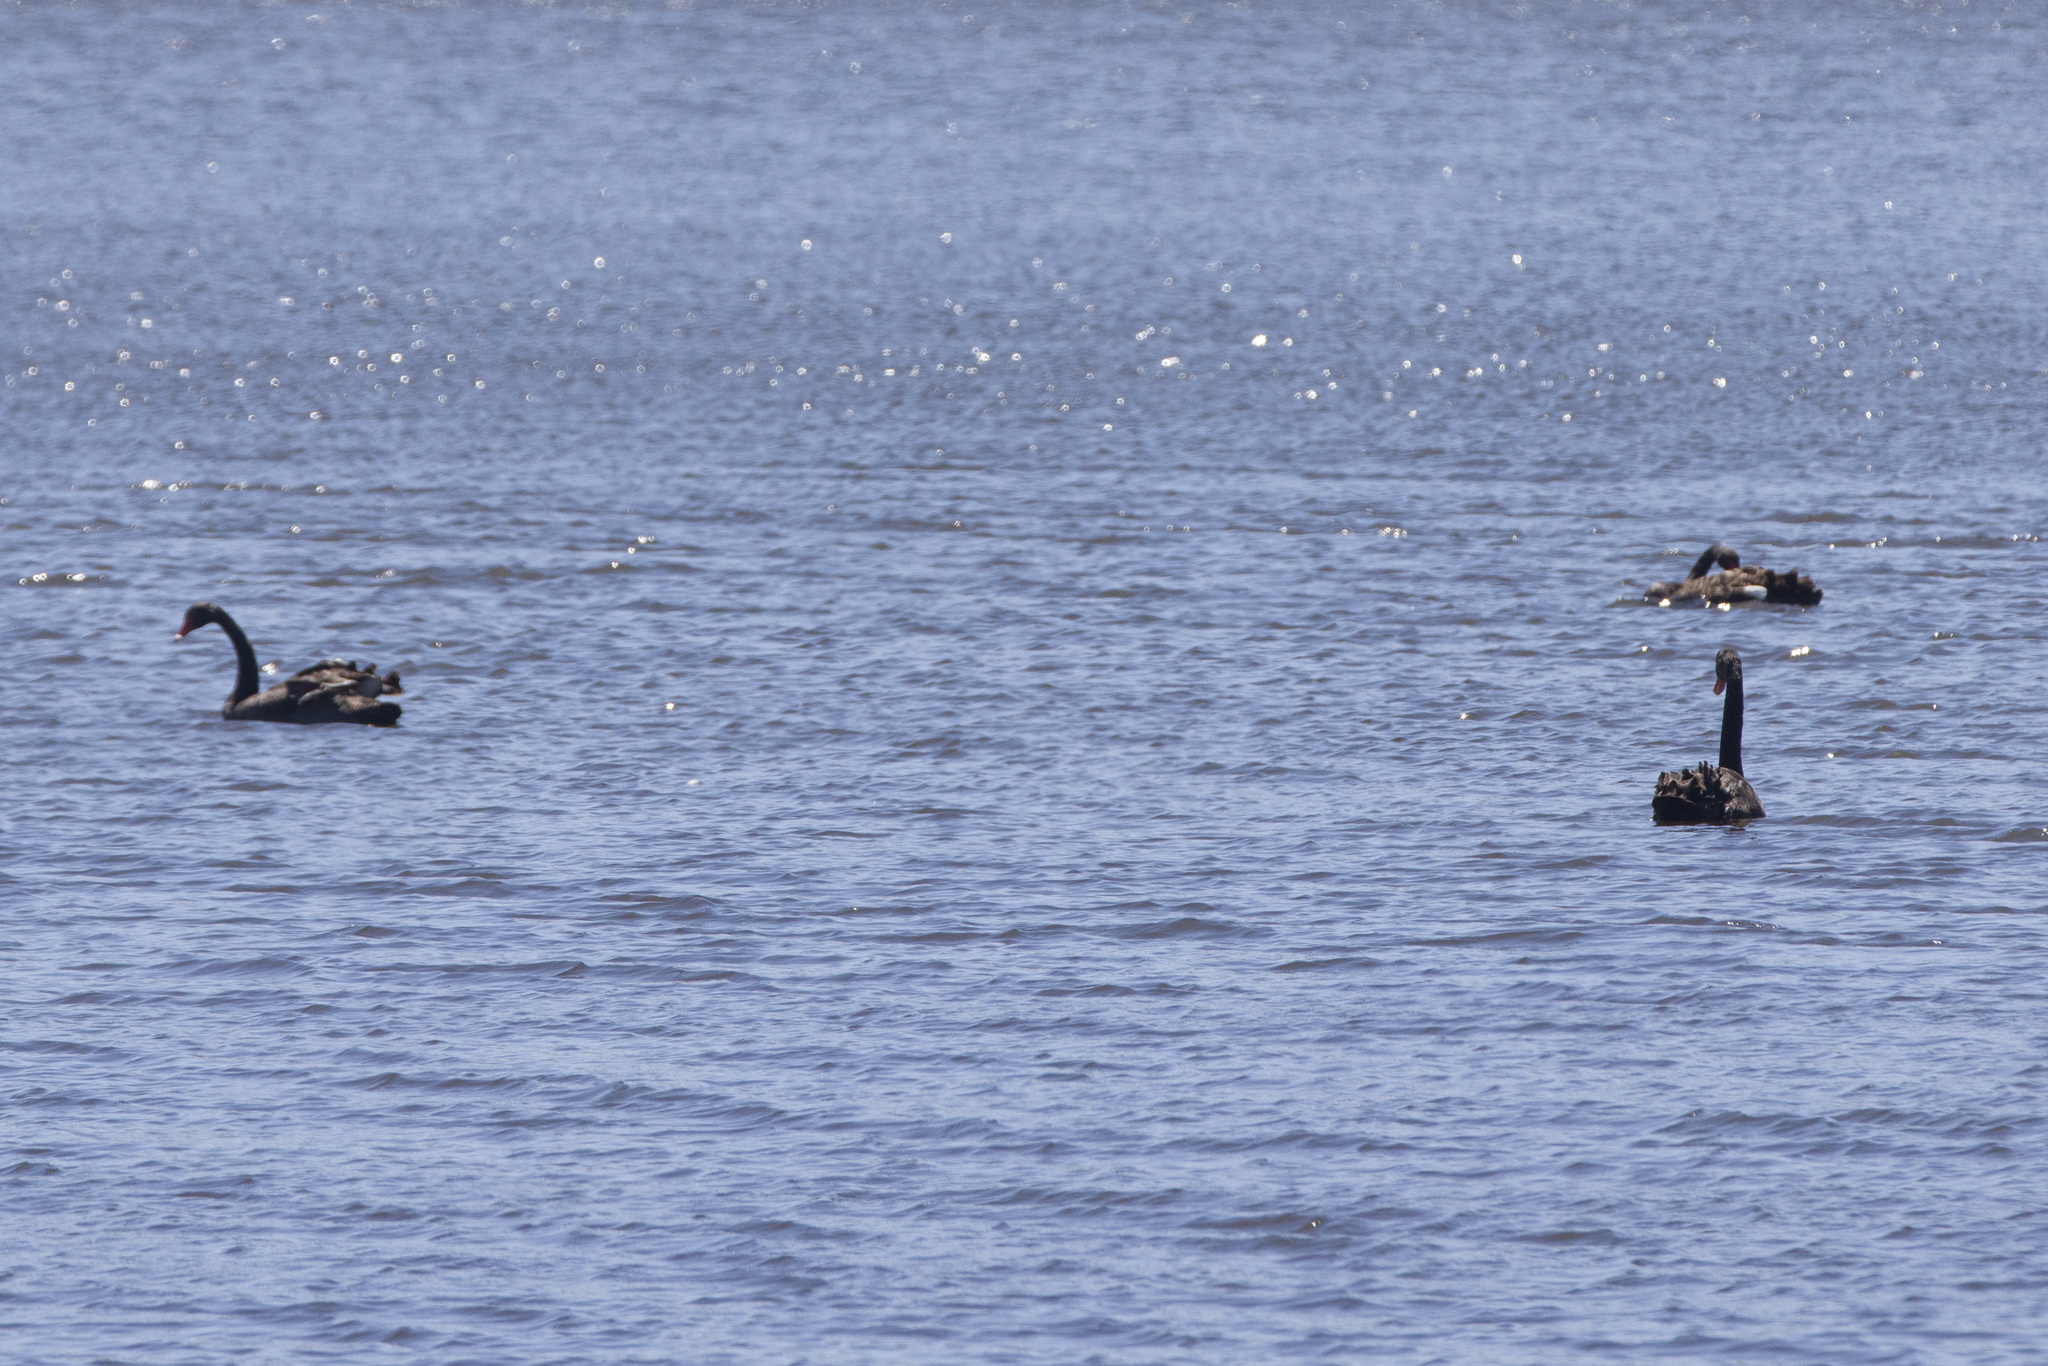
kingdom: Animalia
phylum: Chordata
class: Aves
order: Anseriformes
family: Anatidae
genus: Cygnus
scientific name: Cygnus atratus
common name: Black swan
